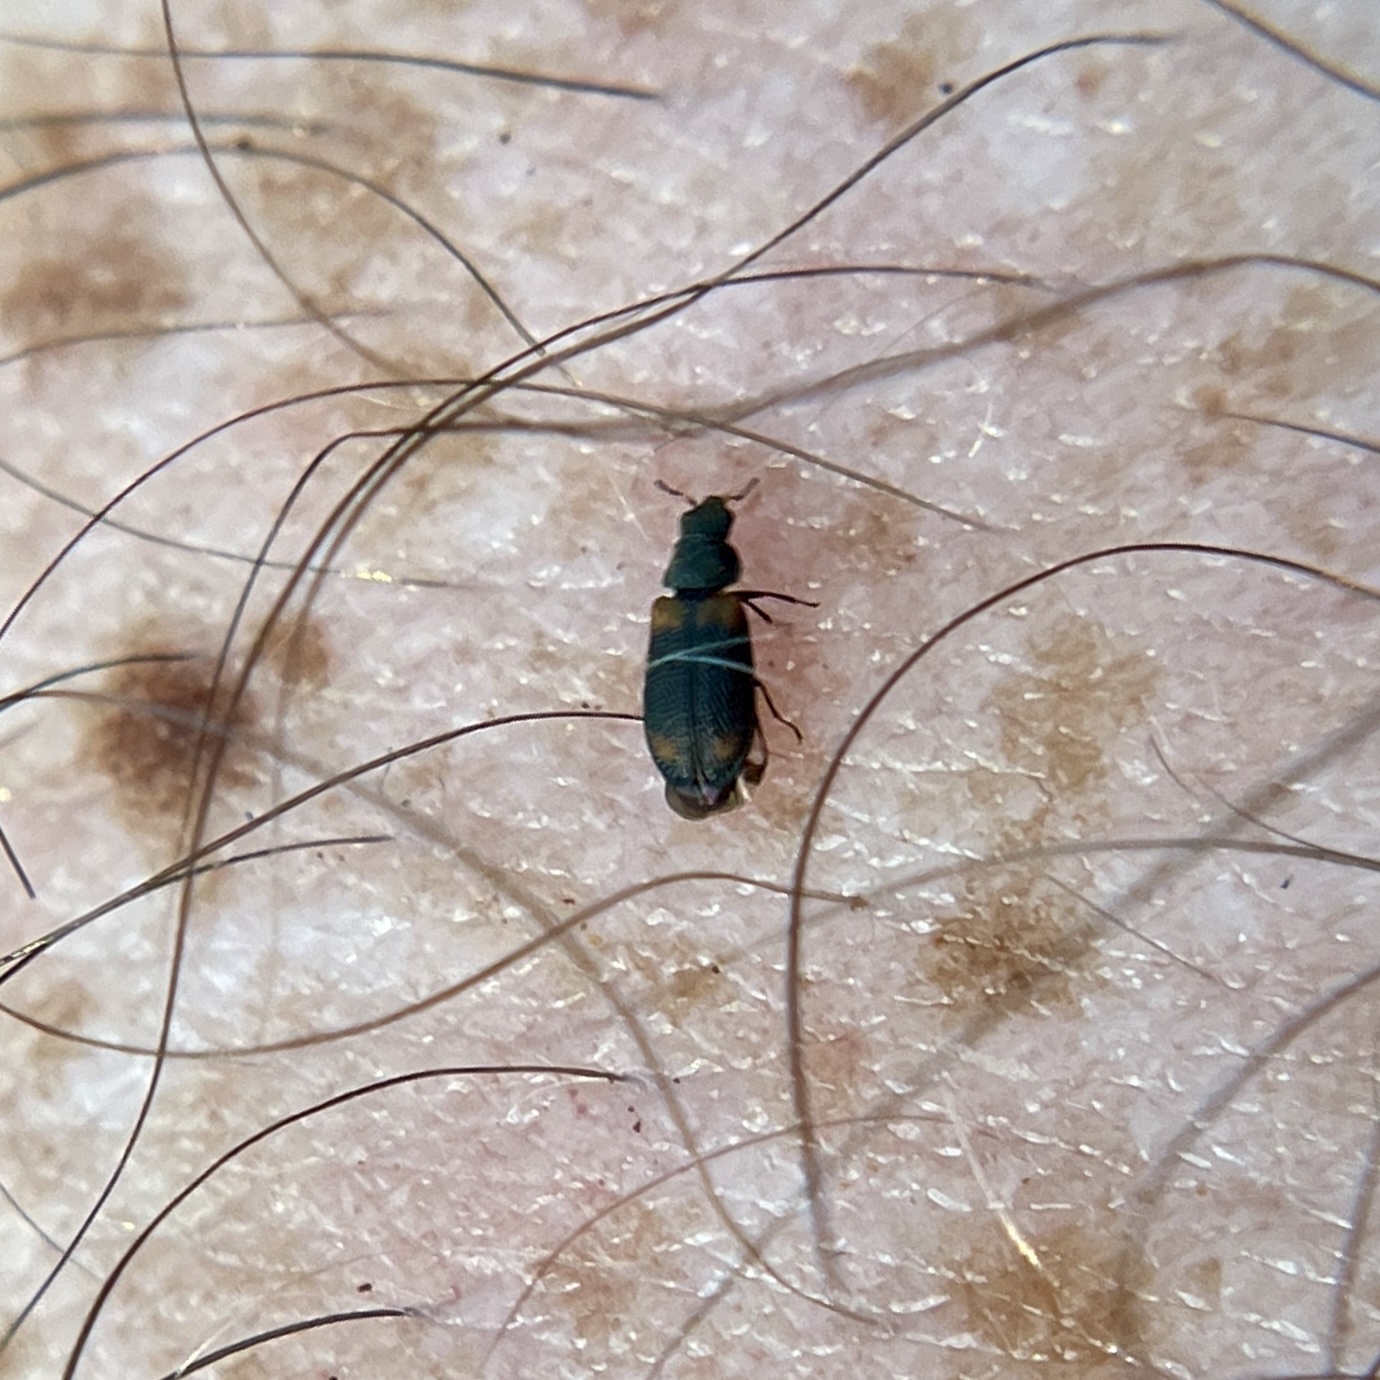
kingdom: Animalia
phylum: Arthropoda
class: Insecta
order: Coleoptera
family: Melyridae
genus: Melyrodes
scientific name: Melyrodes
